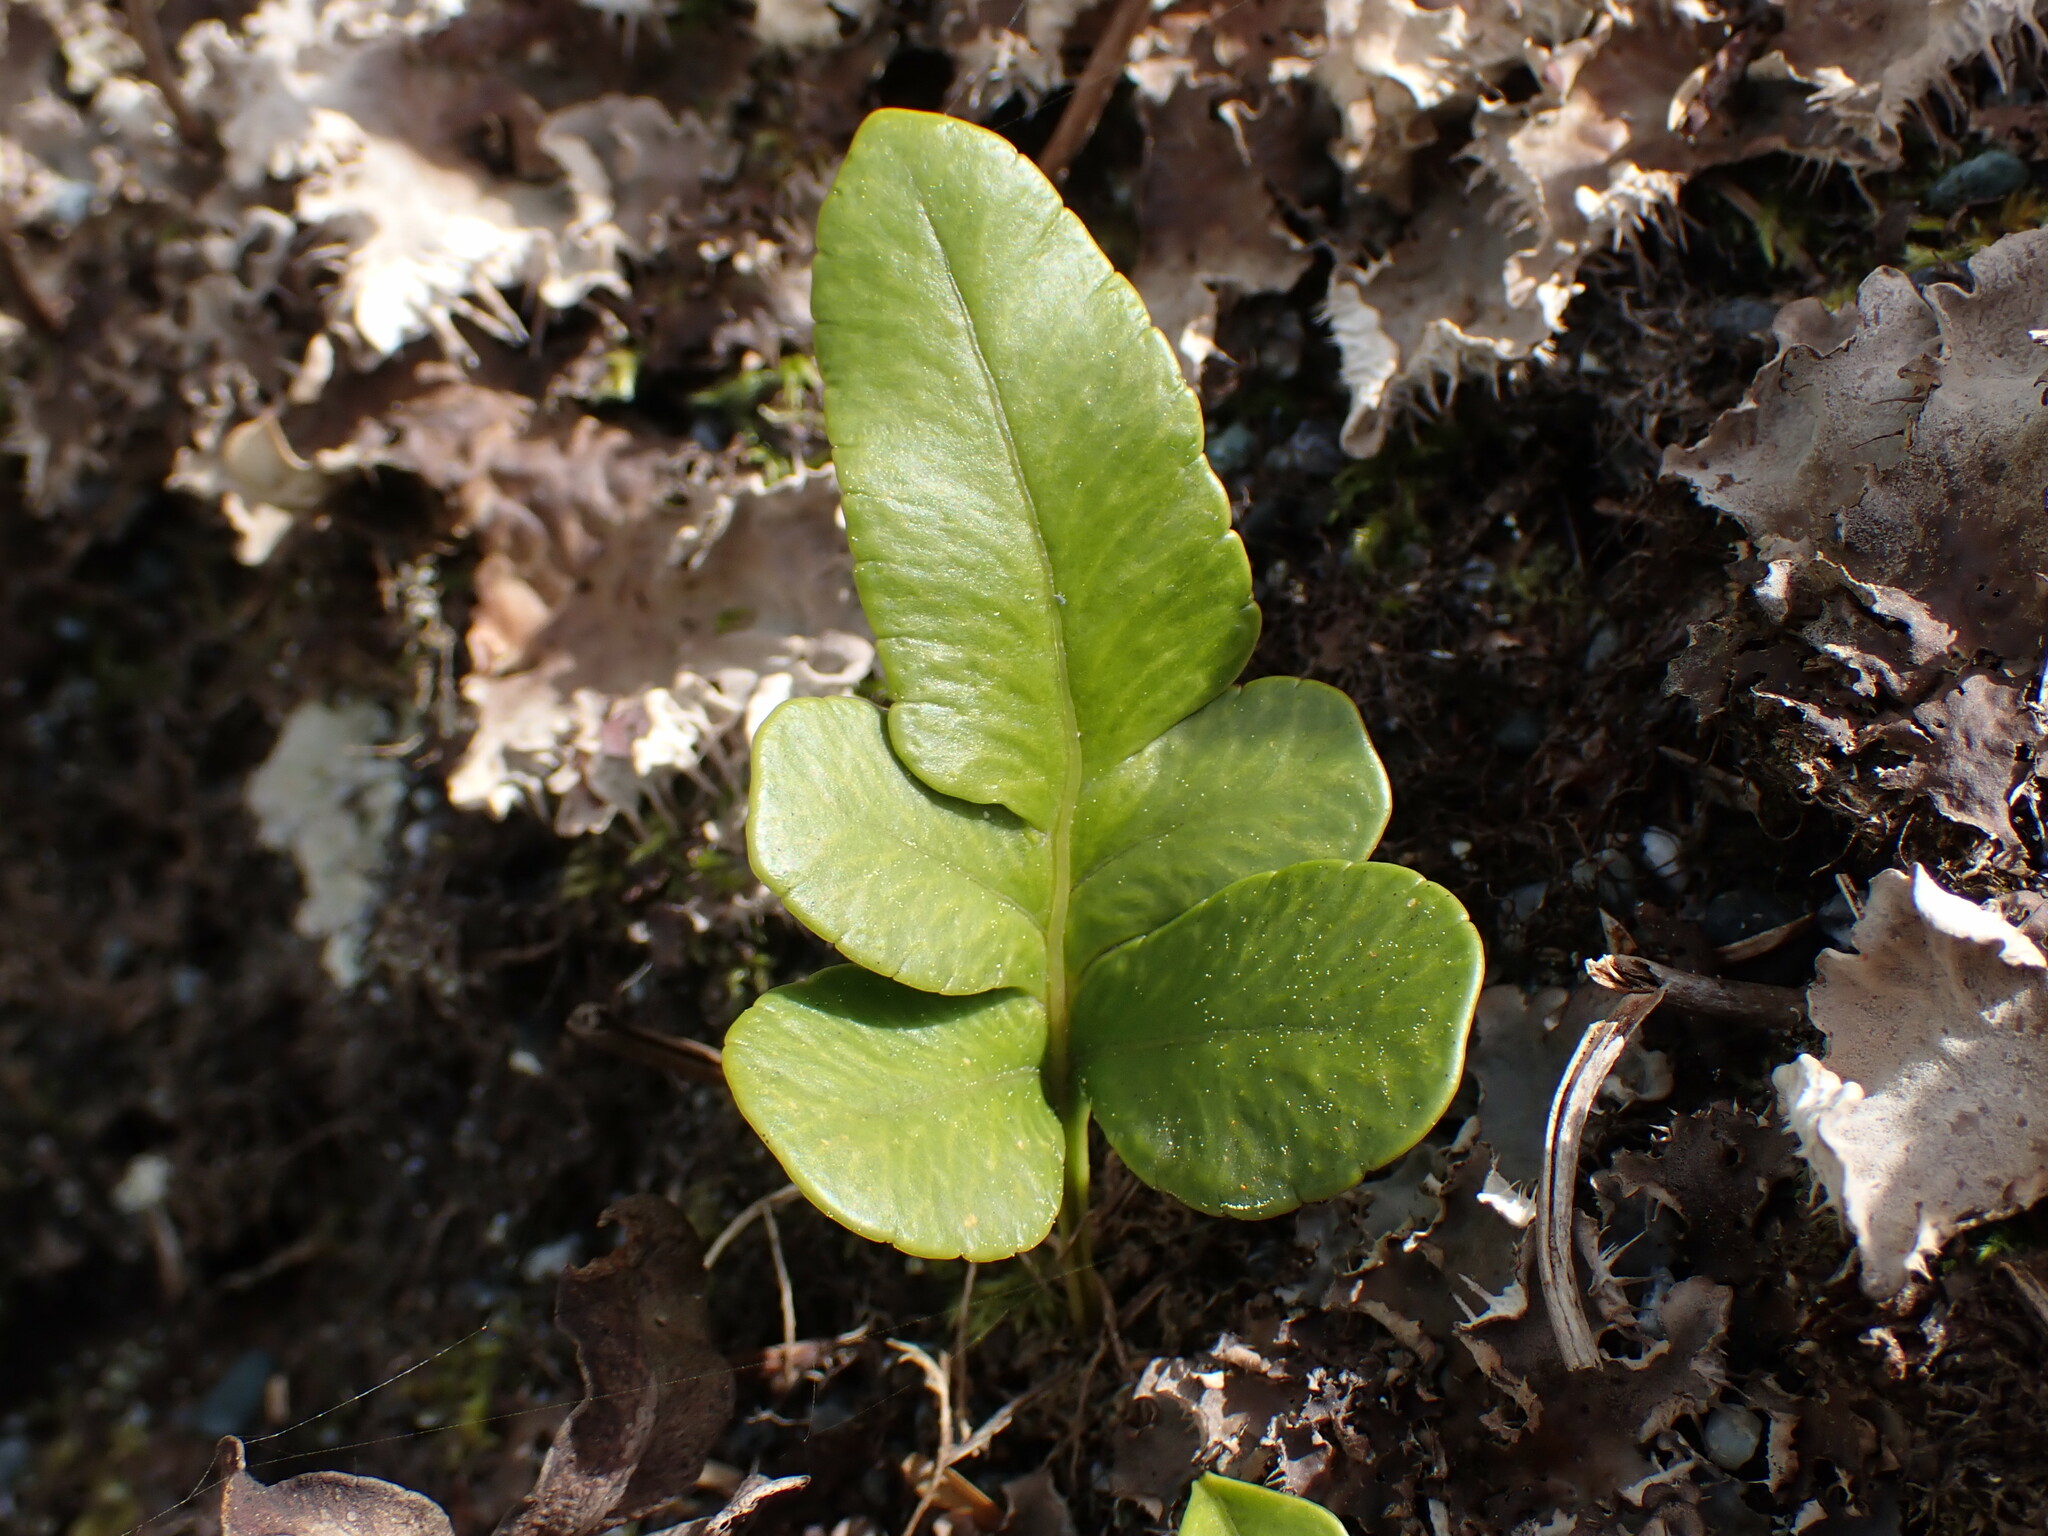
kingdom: Plantae
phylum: Tracheophyta
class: Polypodiopsida
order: Polypodiales
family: Polypodiaceae
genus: Polypodium
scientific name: Polypodium scouleri
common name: Scouler's polypody
